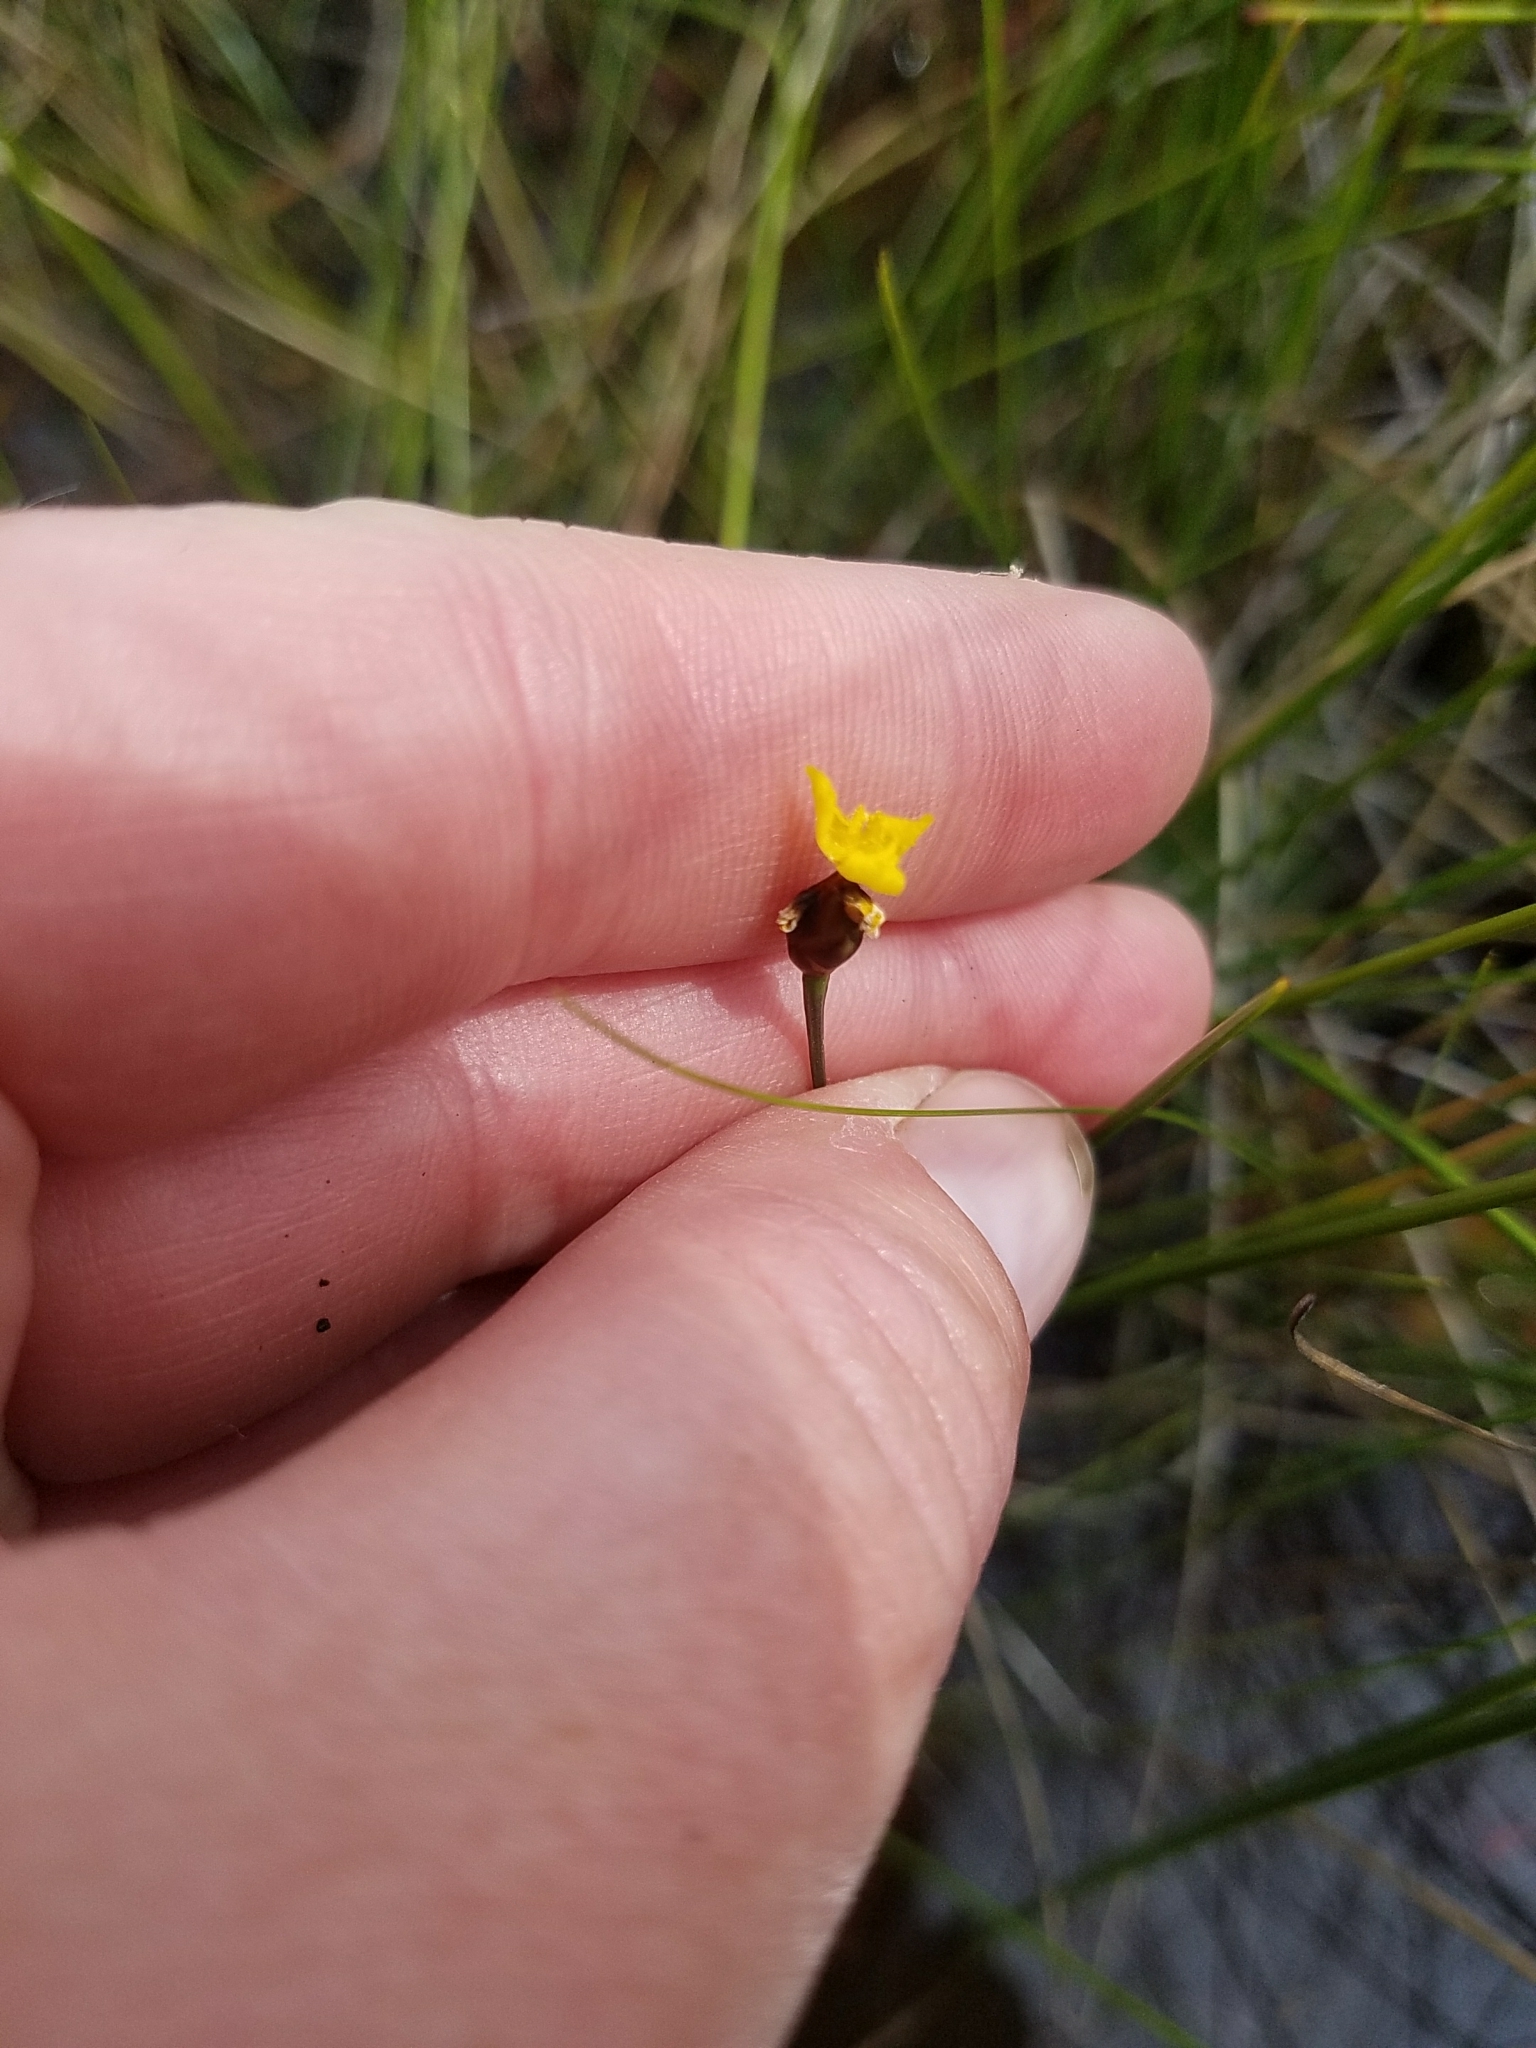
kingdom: Plantae
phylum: Tracheophyta
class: Liliopsida
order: Poales
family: Xyridaceae
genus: Xyris
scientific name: Xyris montana
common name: Northern yellow-eyed-grass
